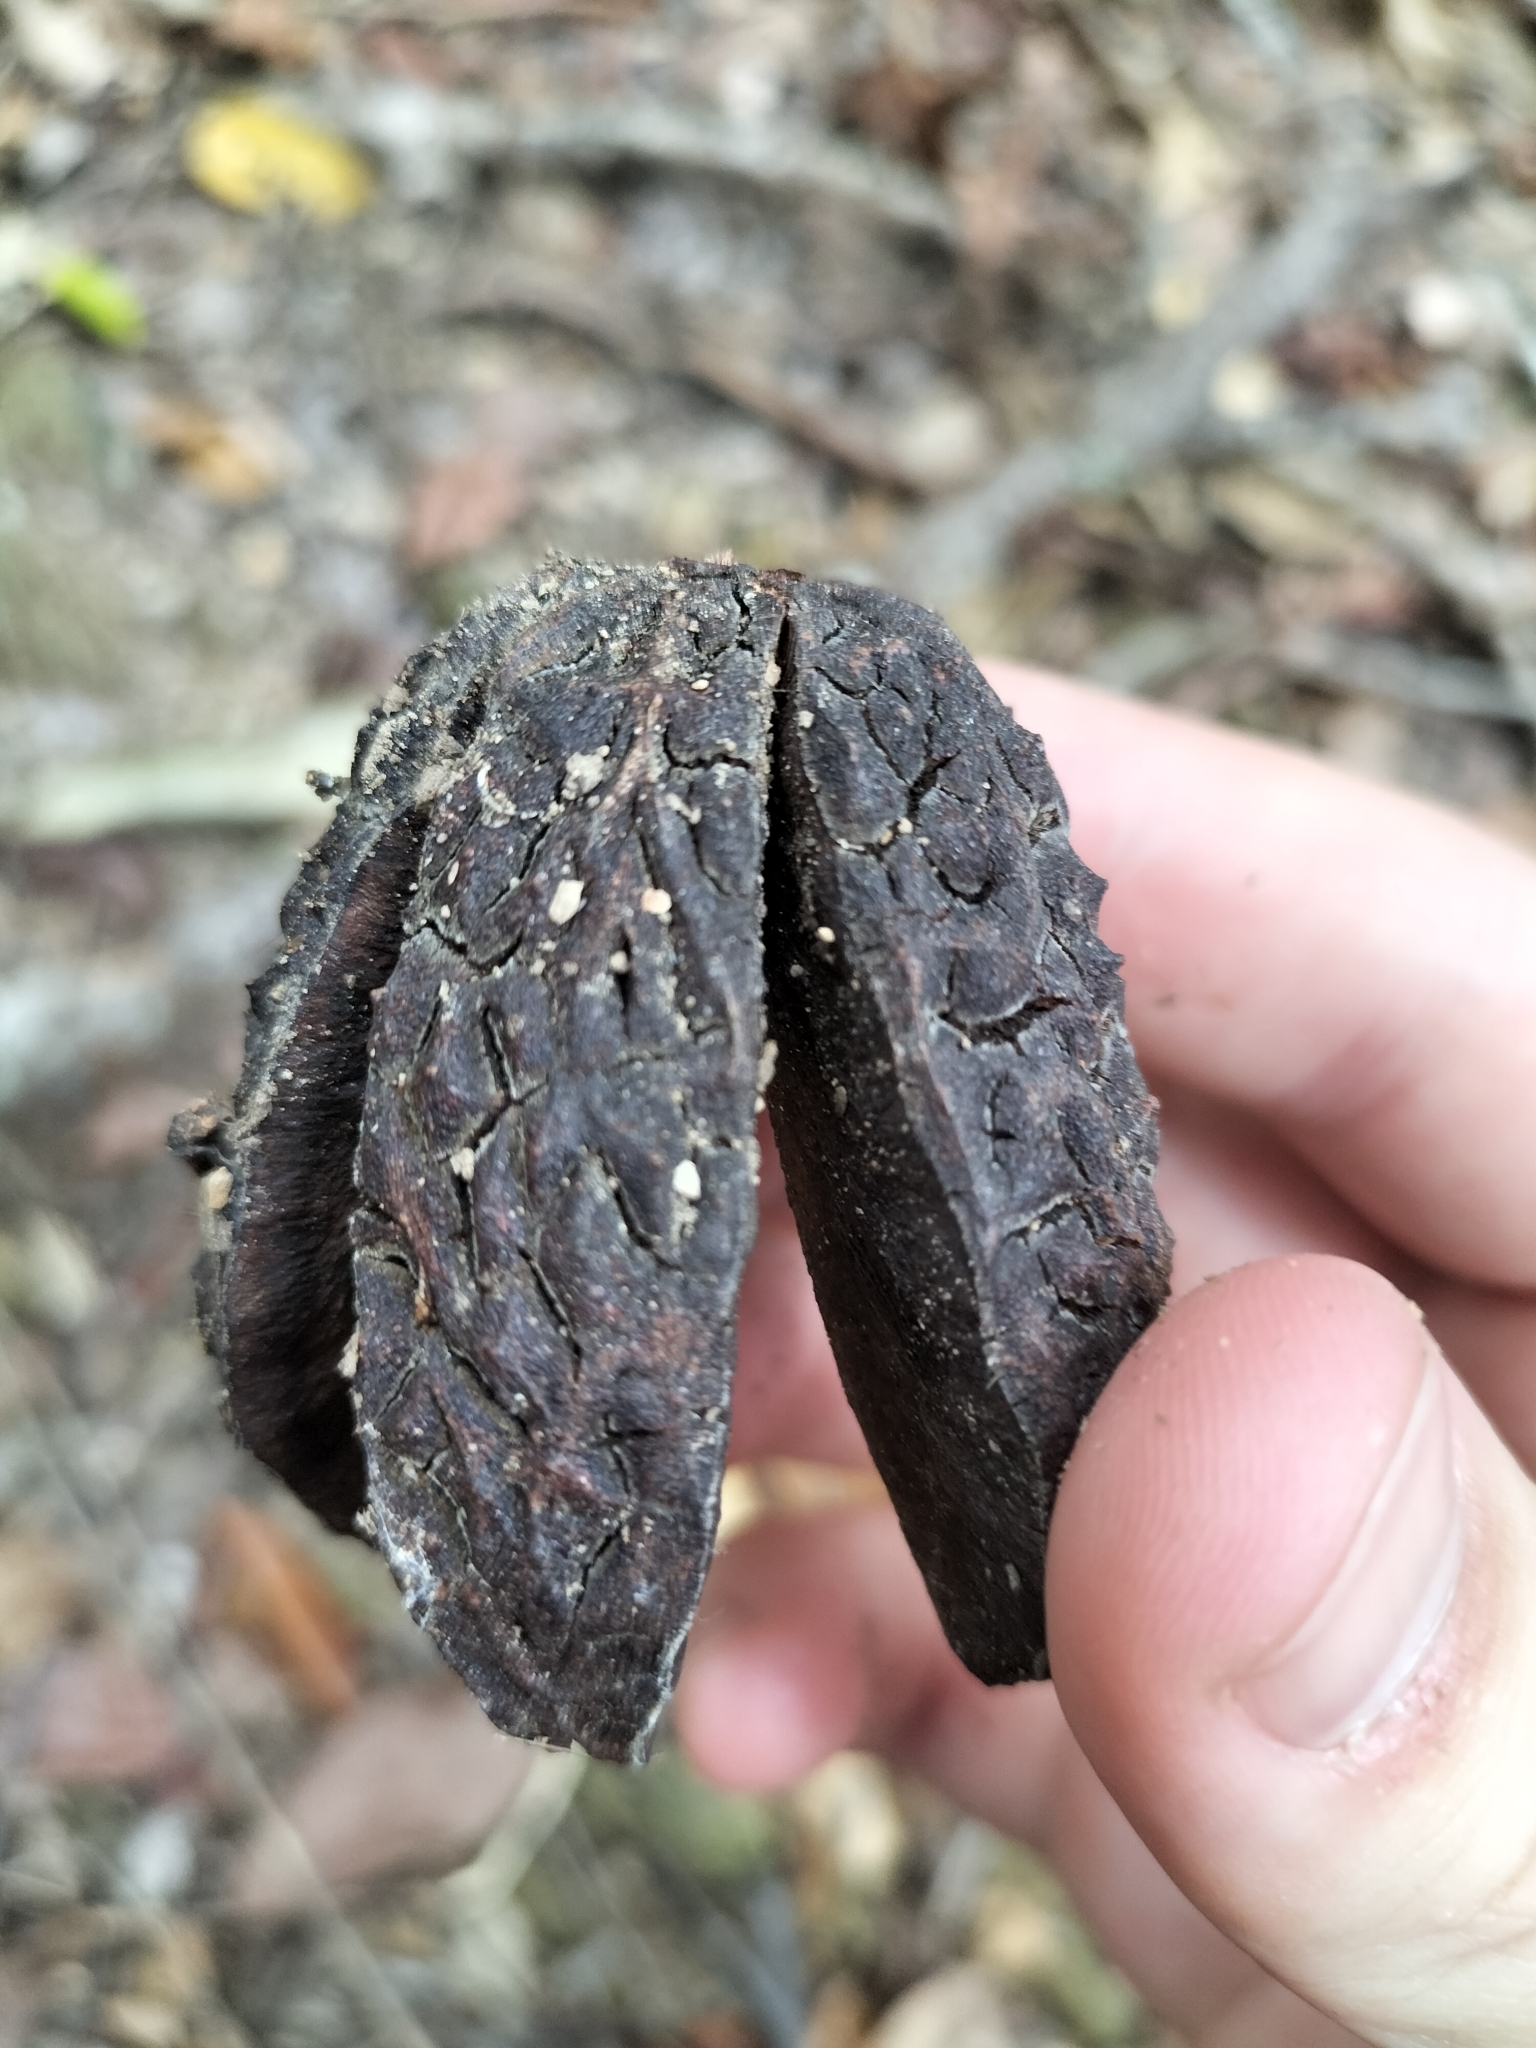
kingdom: Plantae
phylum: Tracheophyta
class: Magnoliopsida
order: Sapindales
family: Rutaceae
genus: Flindersia
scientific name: Flindersia ifflana
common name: Cairns hickory
